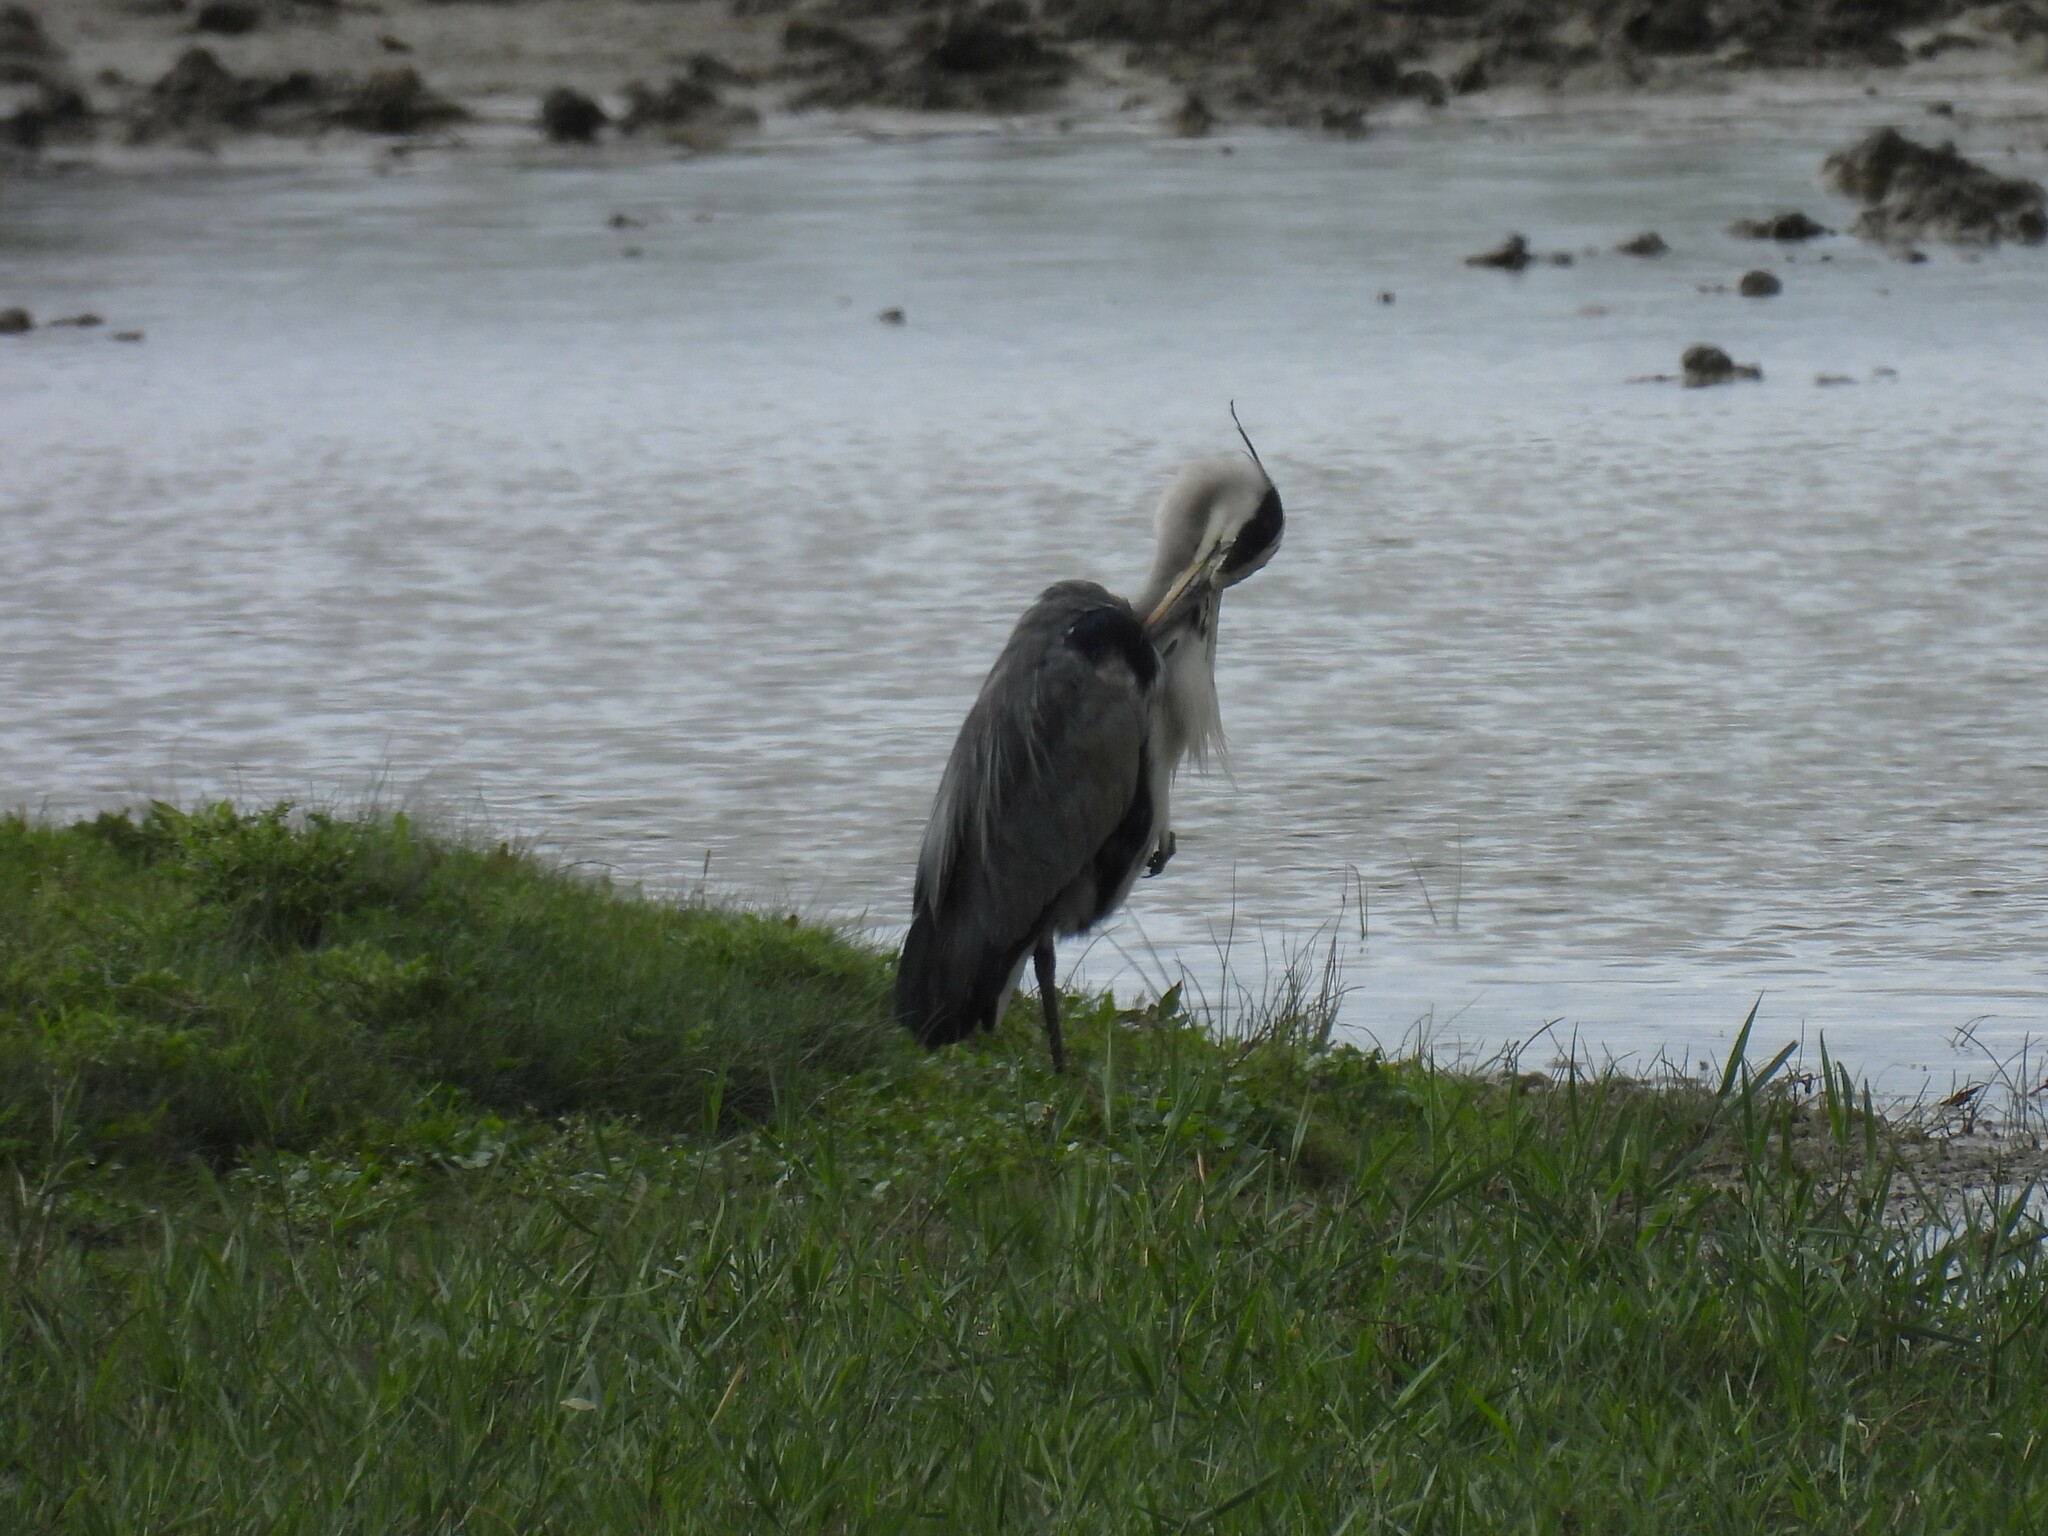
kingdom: Animalia
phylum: Chordata
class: Aves
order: Pelecaniformes
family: Ardeidae
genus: Ardea
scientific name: Ardea cinerea
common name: Grey heron
